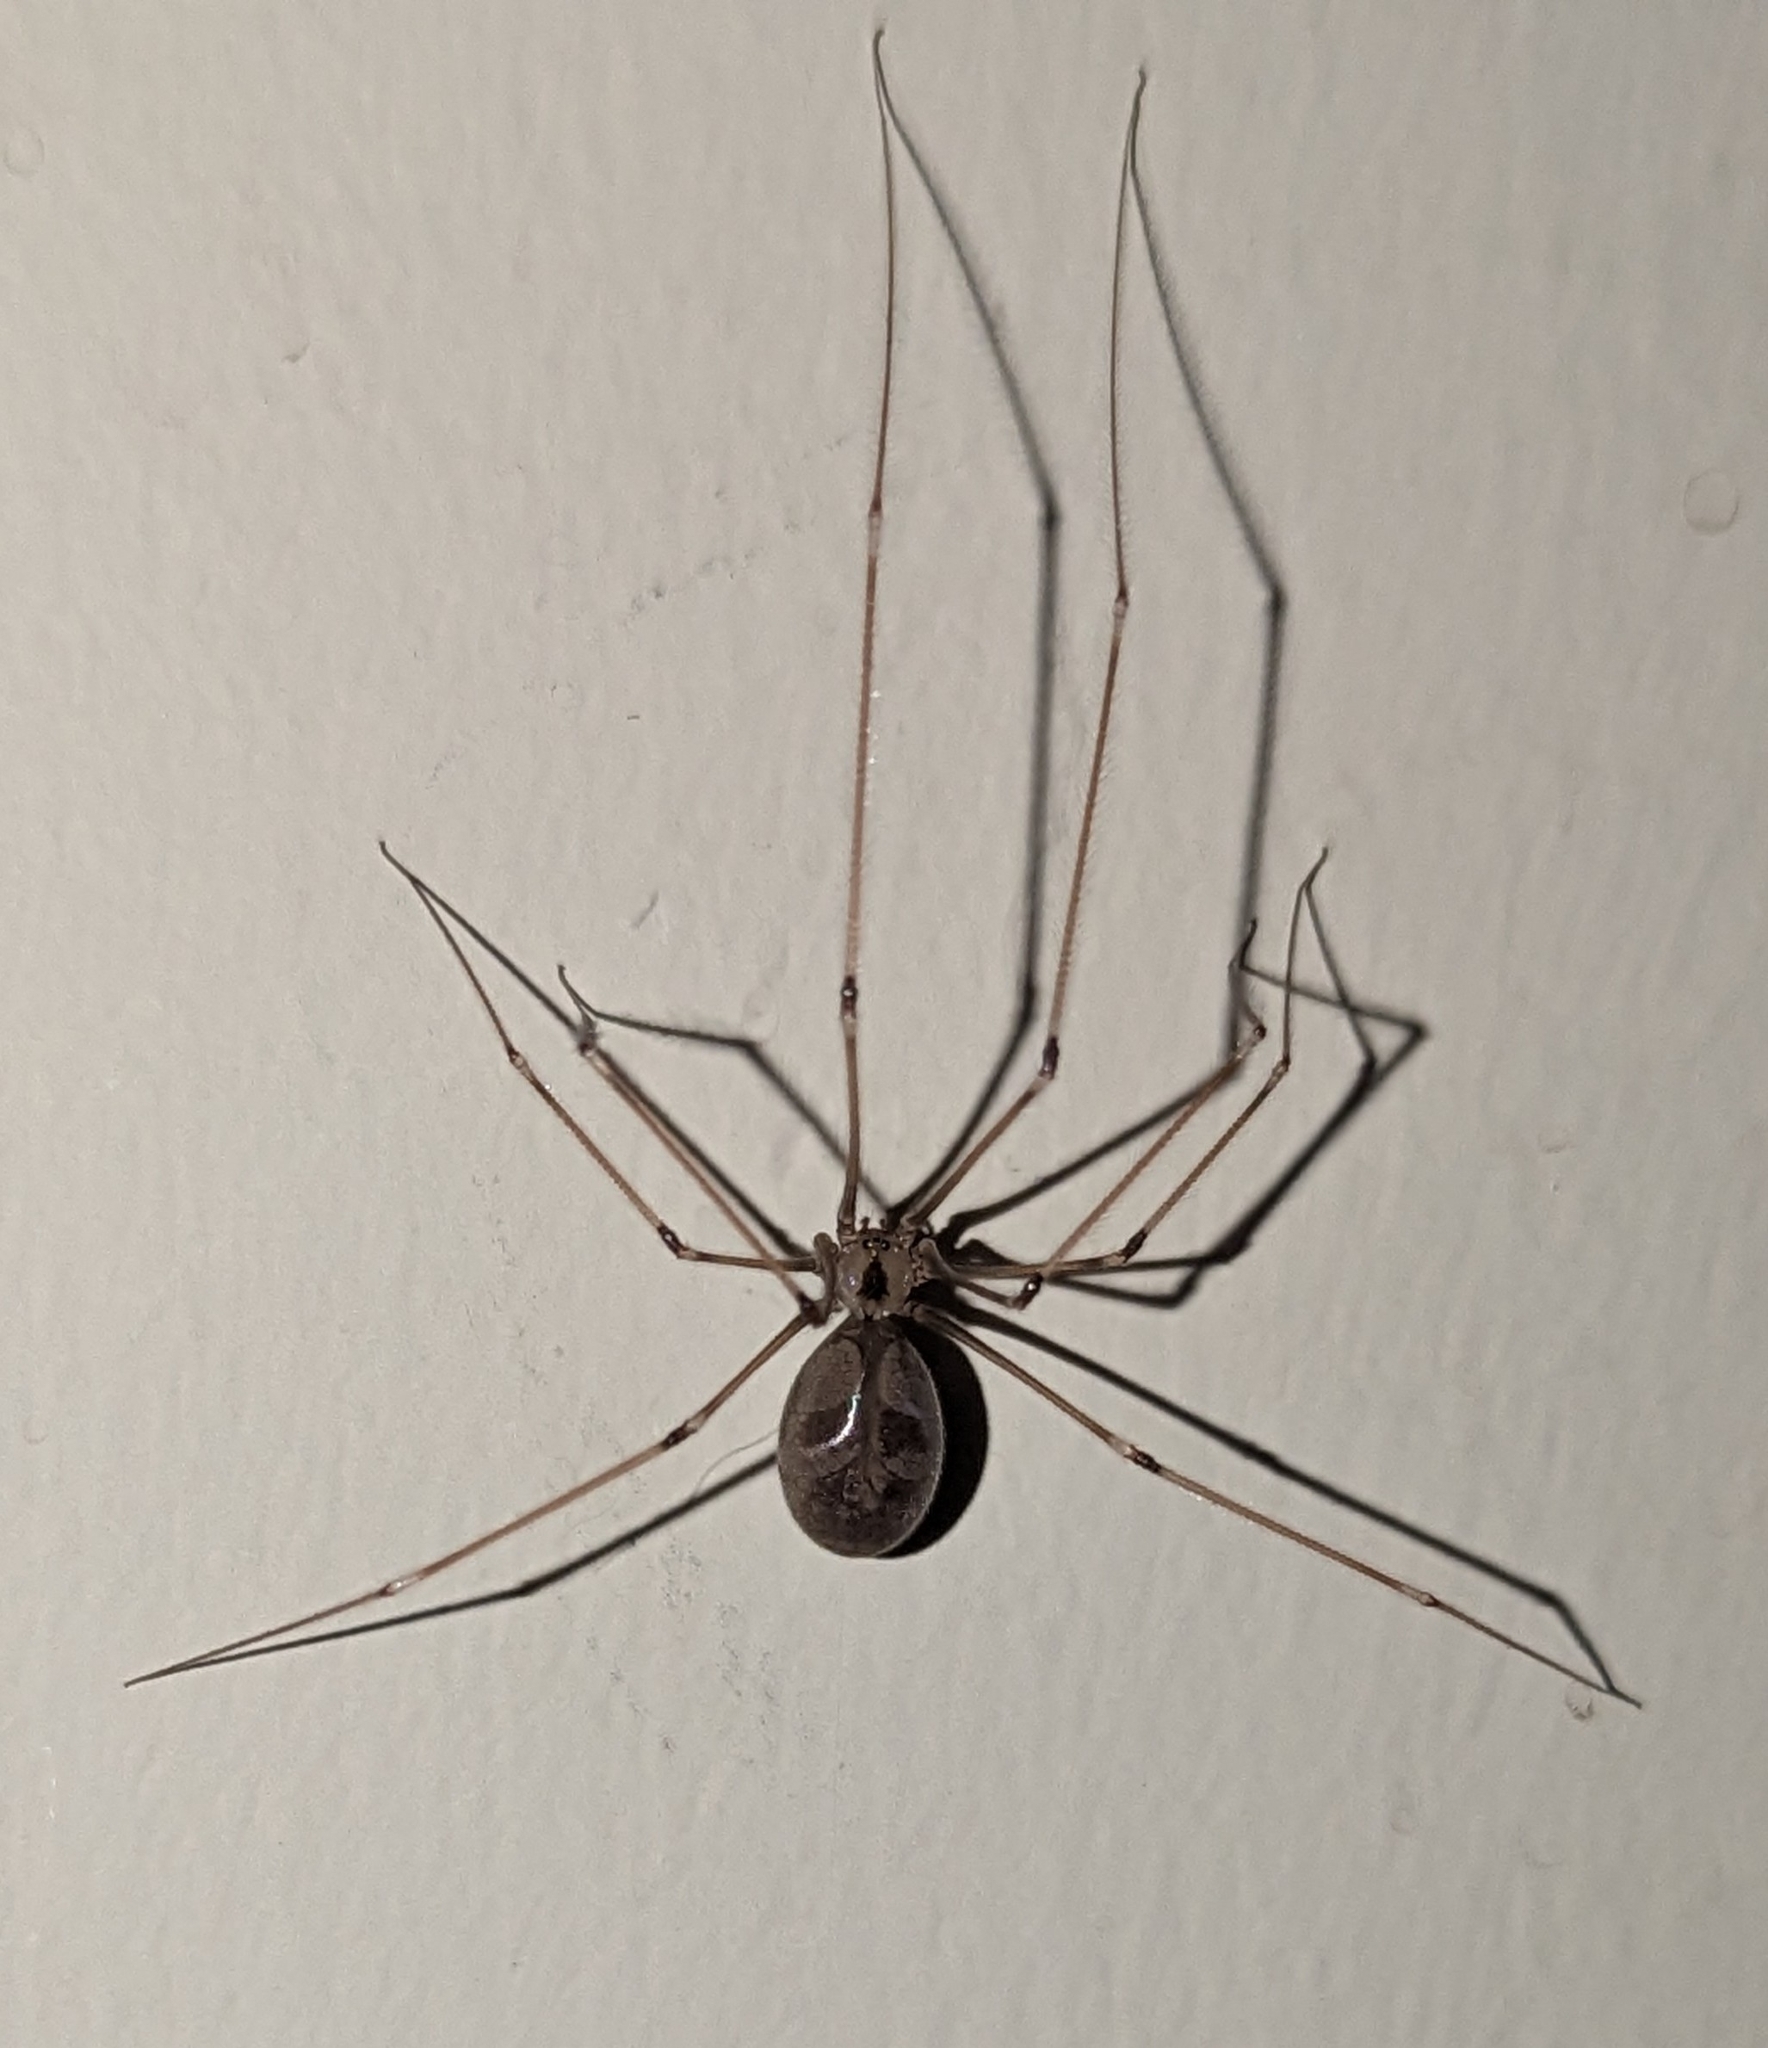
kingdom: Animalia
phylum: Arthropoda
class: Arachnida
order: Araneae
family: Pholcidae
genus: Pholcus
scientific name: Pholcus phalangioides
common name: Longbodied cellar spider
